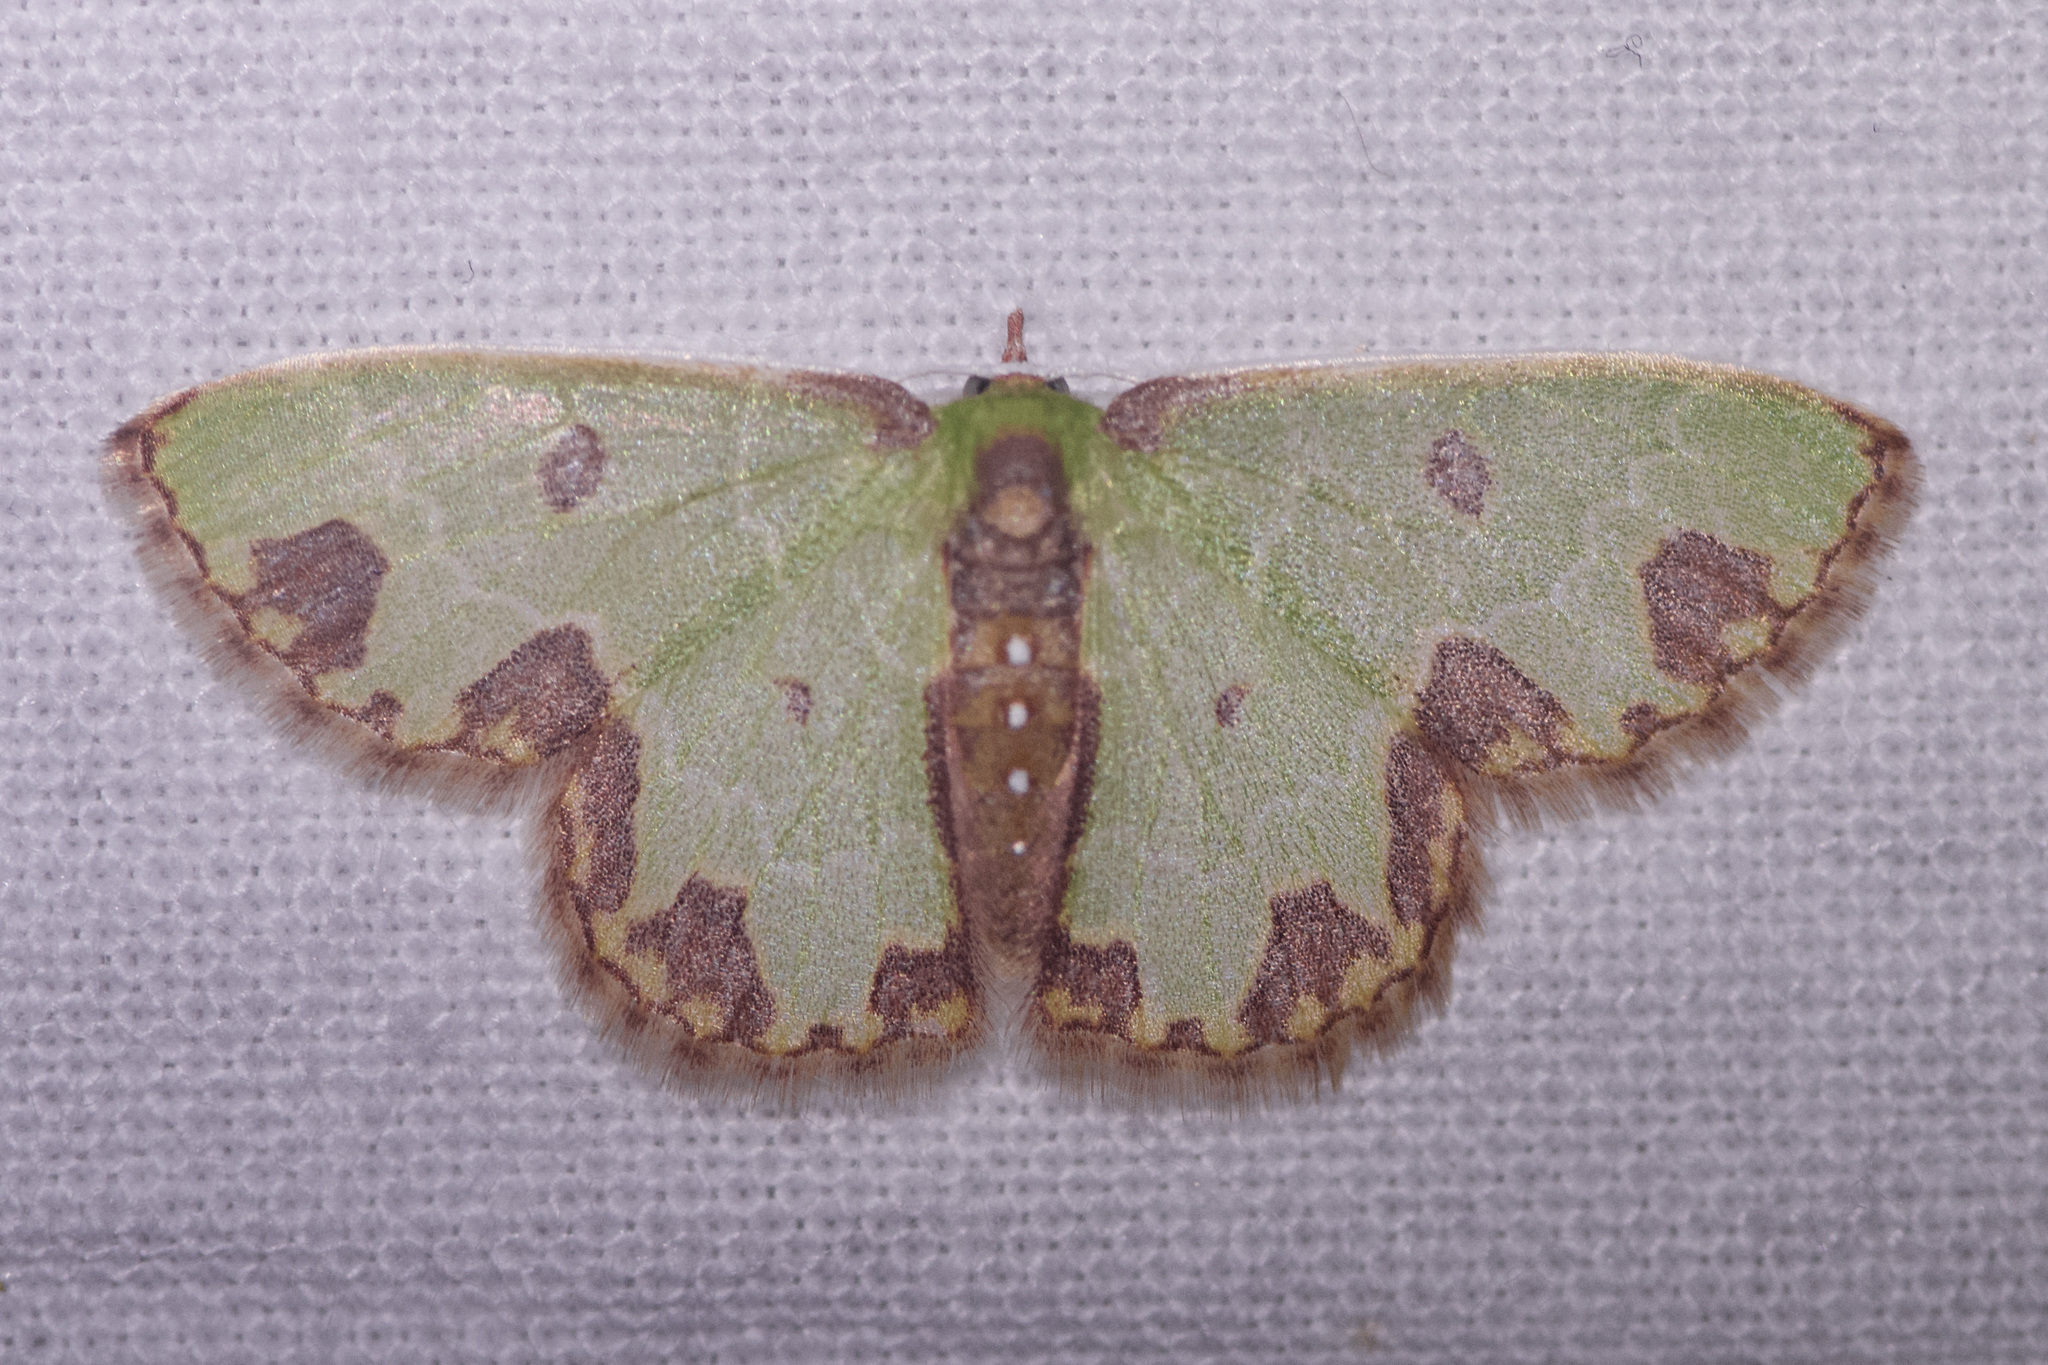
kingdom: Animalia
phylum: Arthropoda
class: Insecta
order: Lepidoptera
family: Geometridae
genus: Synchlora
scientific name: Synchlora gerularia
